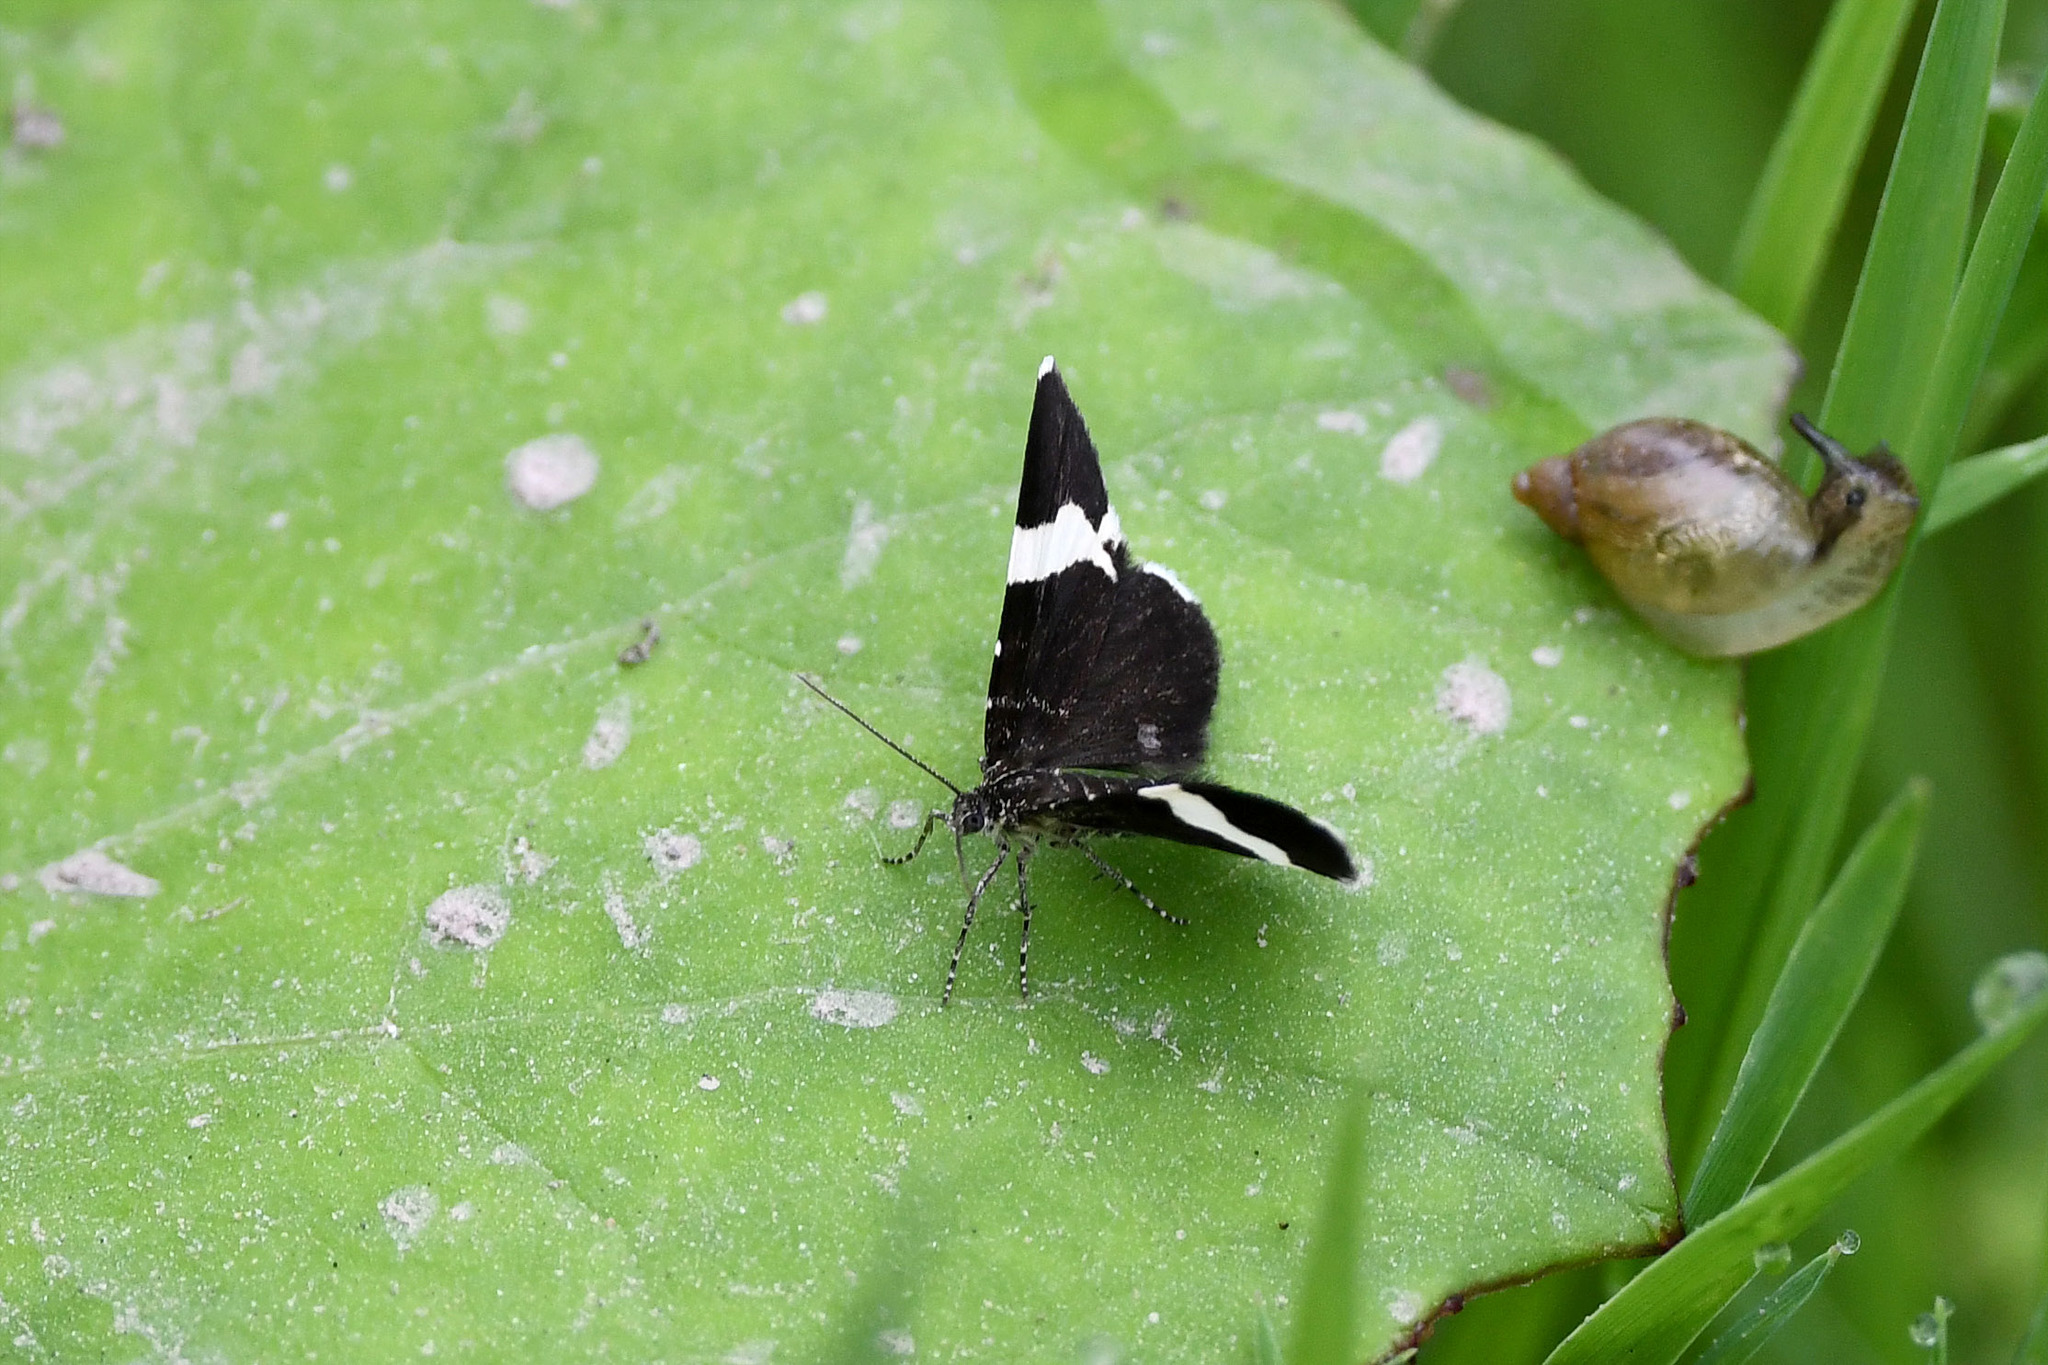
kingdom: Animalia
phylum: Arthropoda
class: Insecta
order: Lepidoptera
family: Geometridae
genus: Trichodezia
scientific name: Trichodezia albovittata
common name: White striped black
